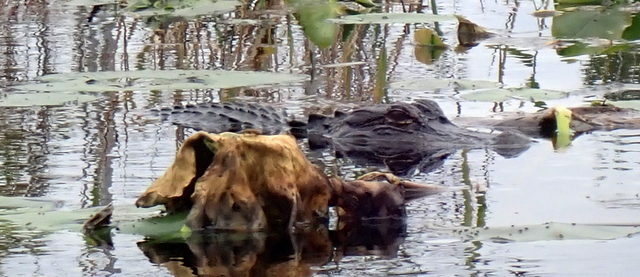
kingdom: Animalia
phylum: Chordata
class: Crocodylia
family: Alligatoridae
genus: Alligator
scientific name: Alligator mississippiensis
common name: American alligator
